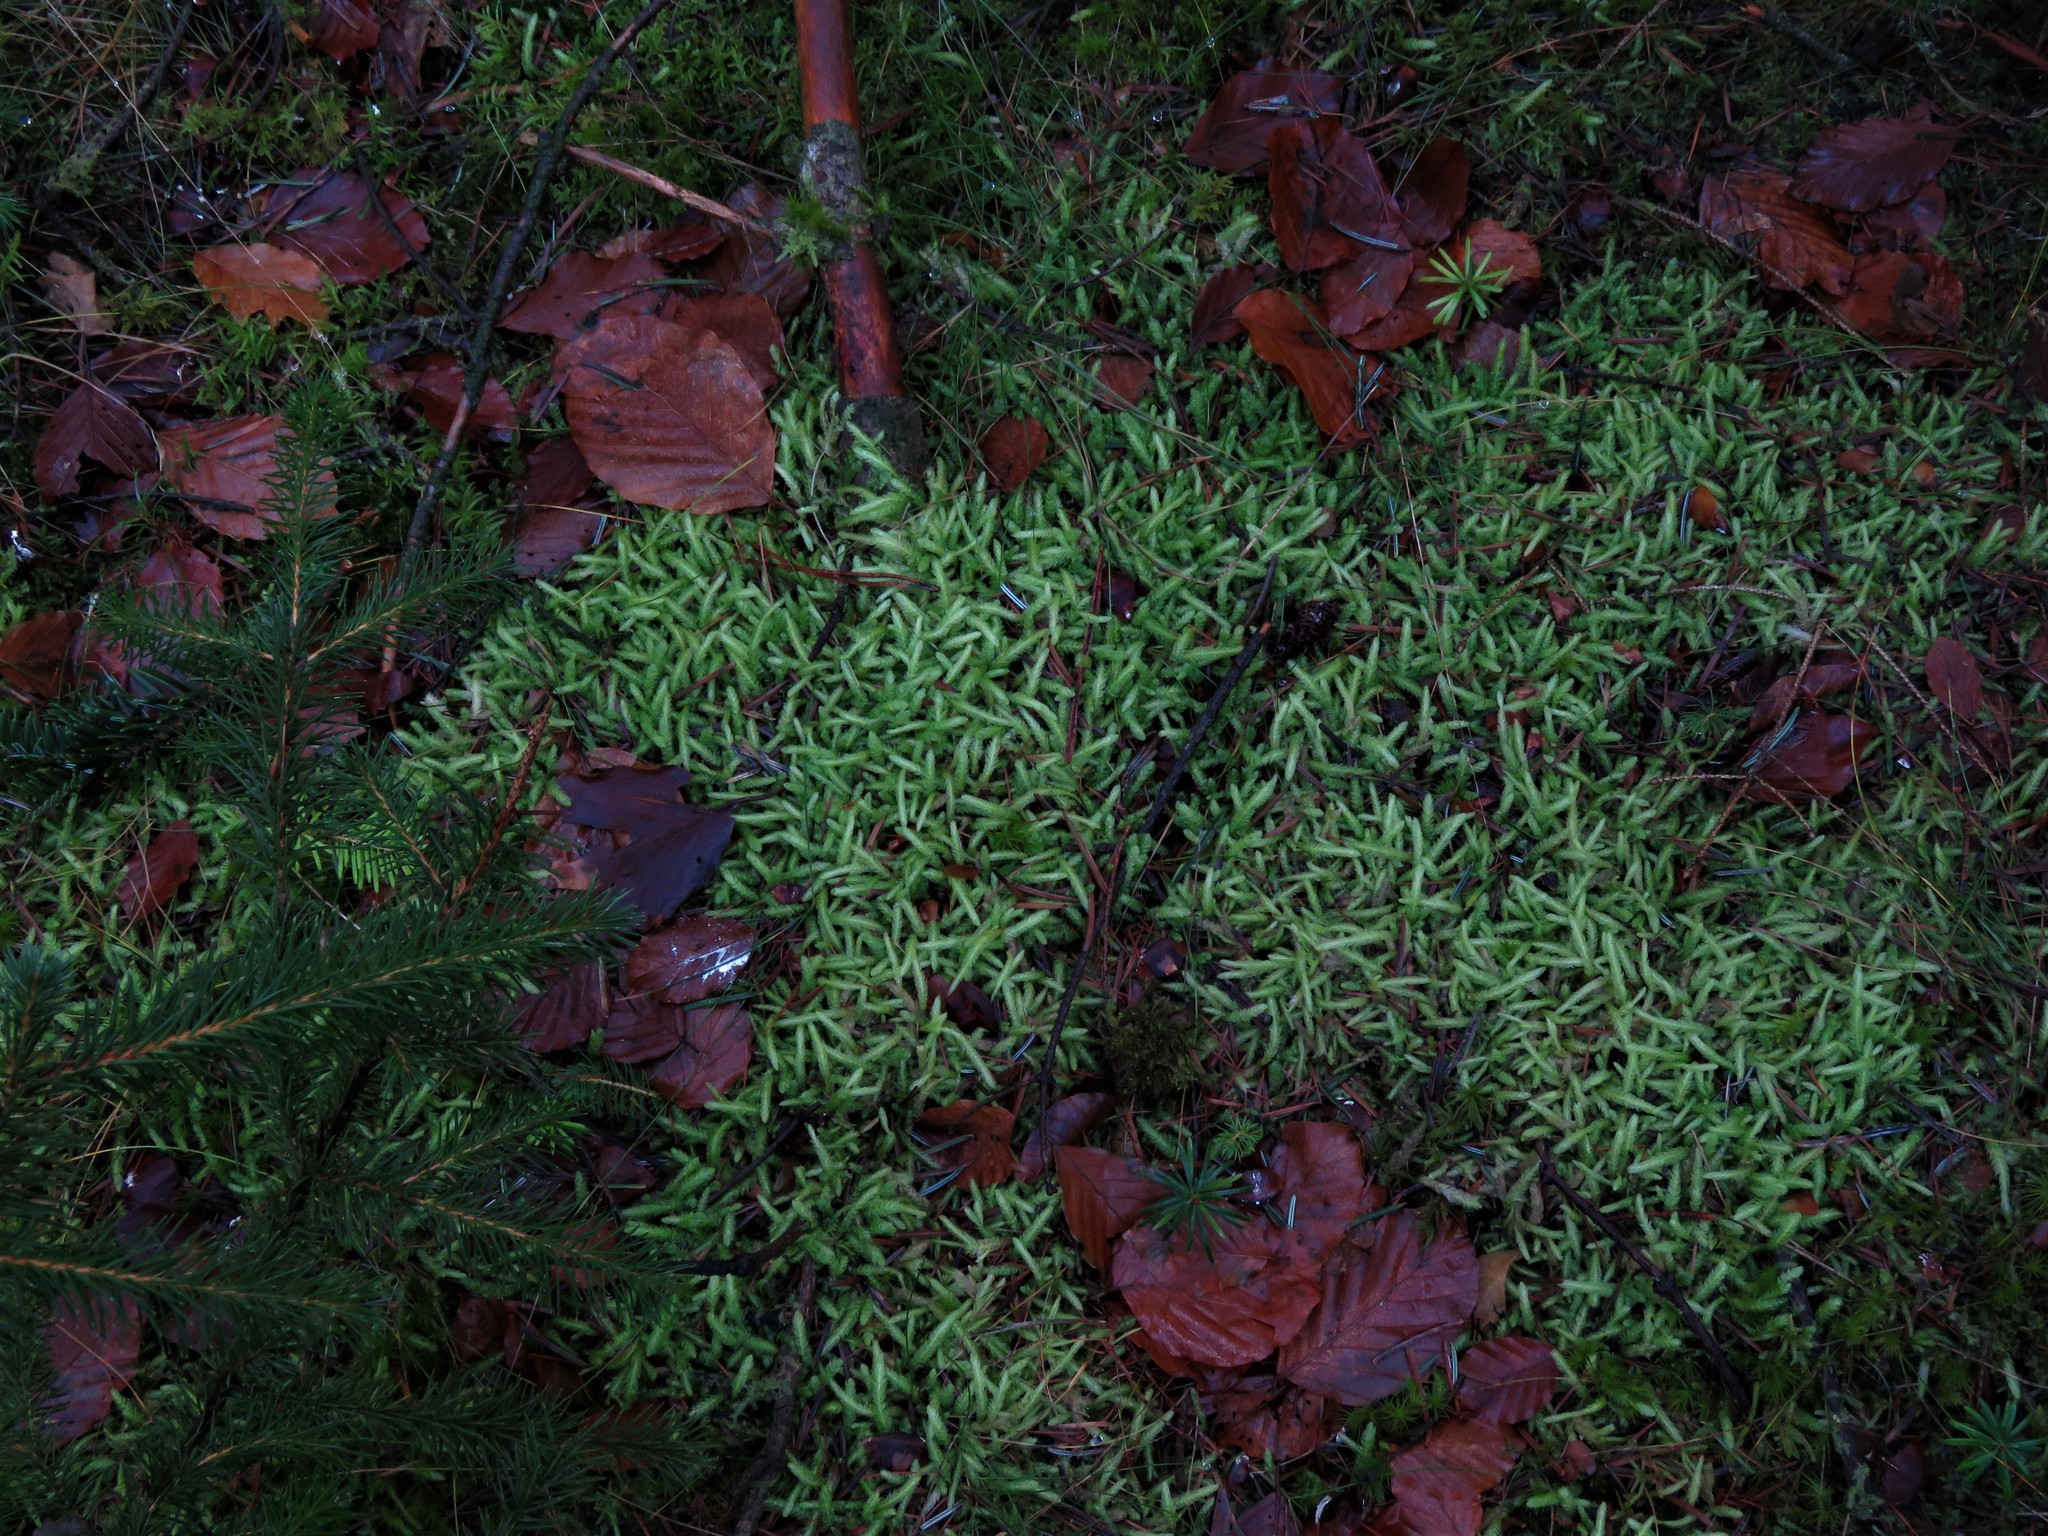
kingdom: Plantae
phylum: Bryophyta
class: Bryopsida
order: Hypnales
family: Plagiotheciaceae
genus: Plagiothecium
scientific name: Plagiothecium undulatum
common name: Waved silk-moss
